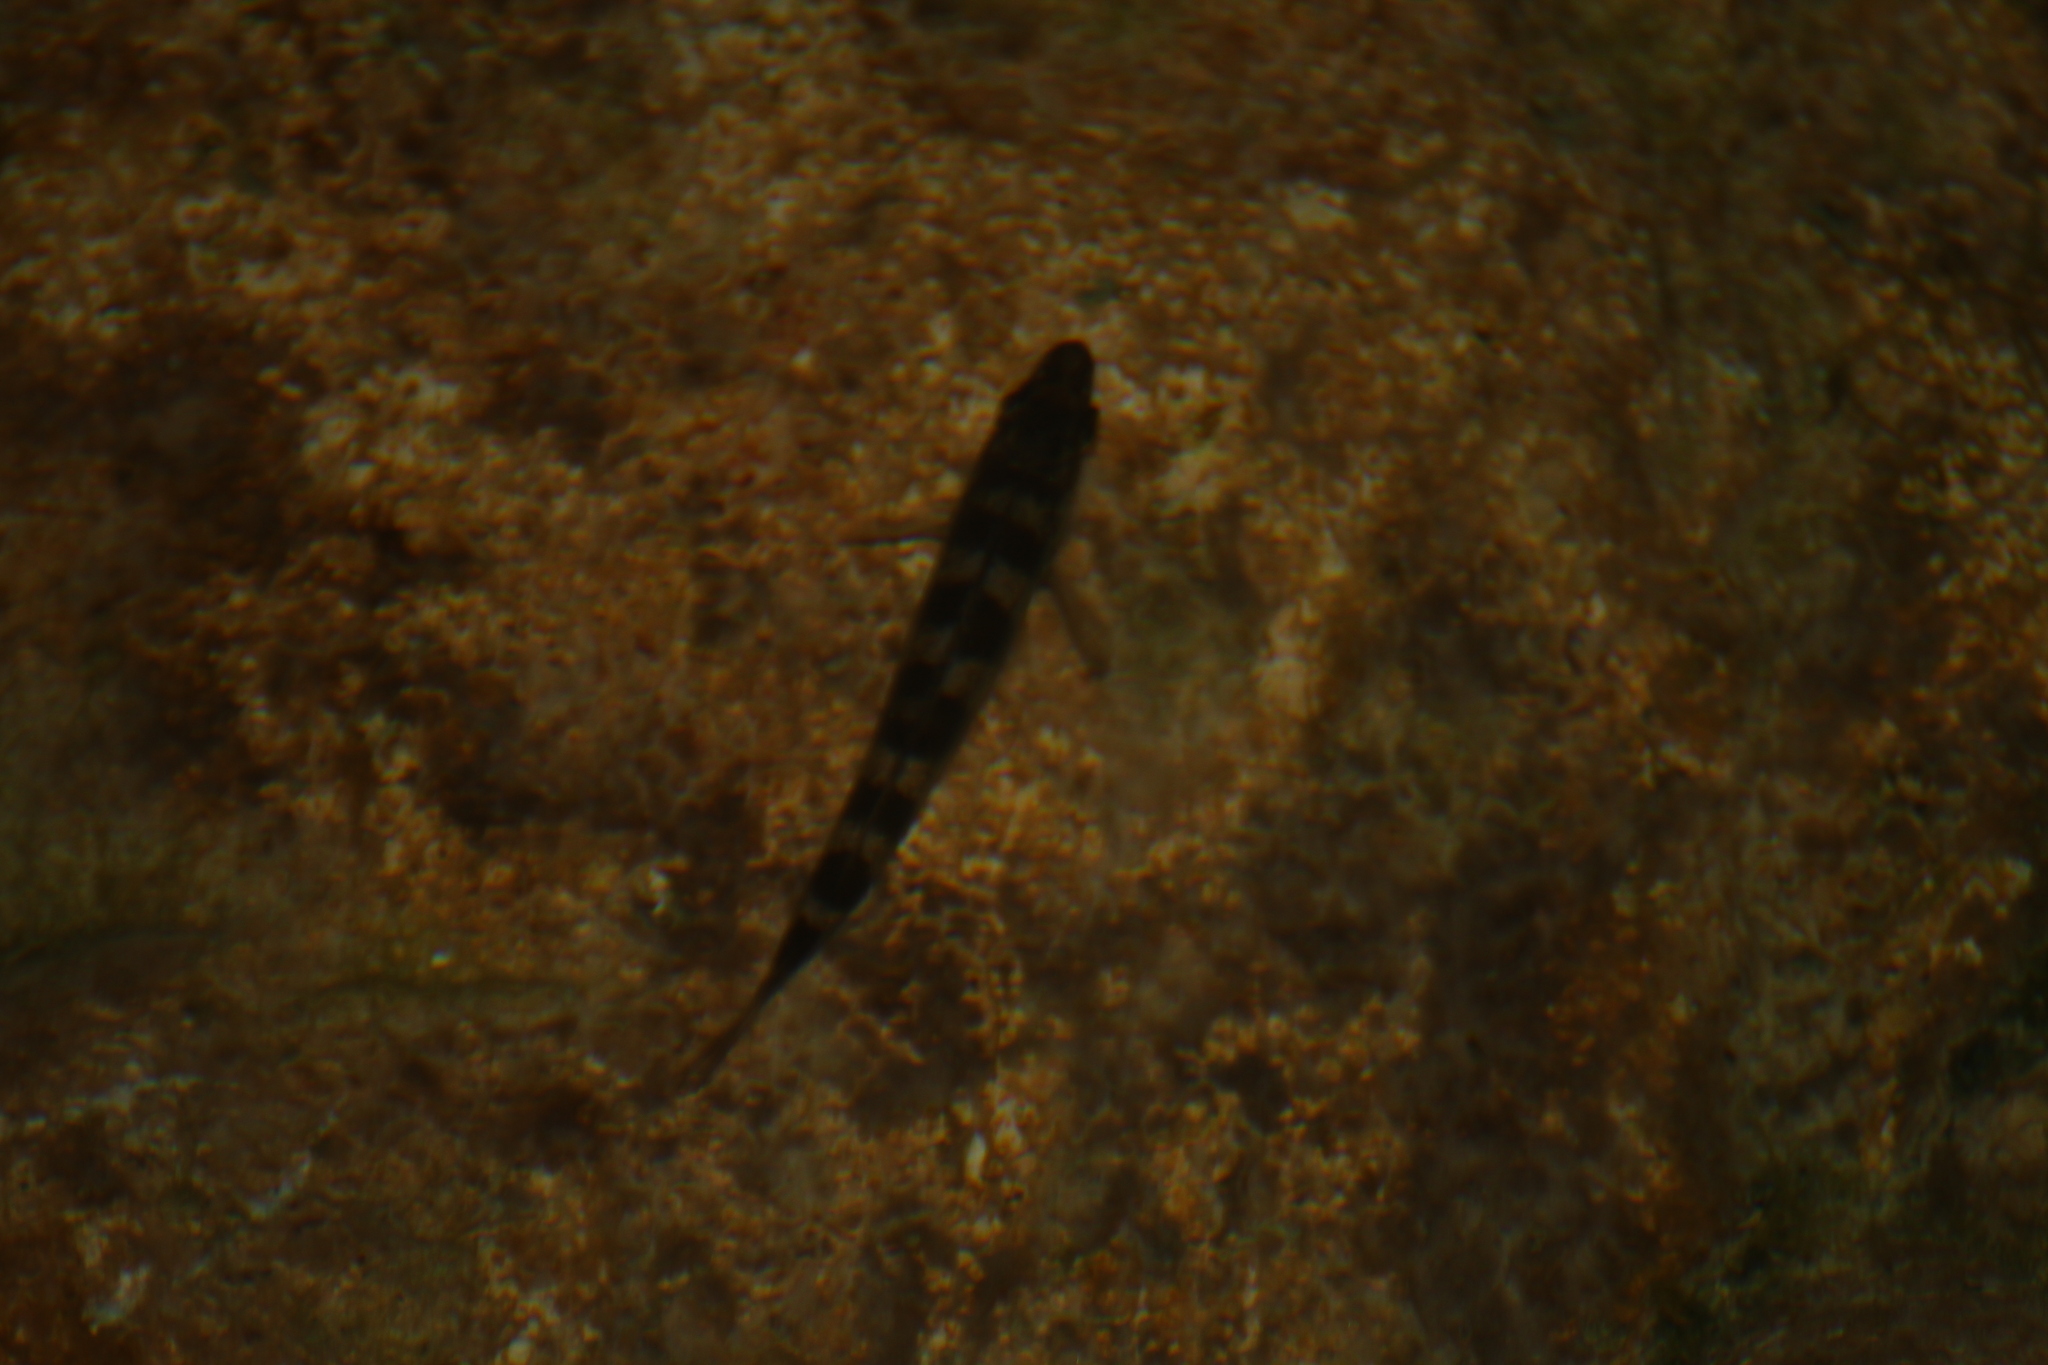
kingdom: Animalia
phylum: Chordata
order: Perciformes
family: Percidae
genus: Perca
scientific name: Perca fluviatilis
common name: Perch
